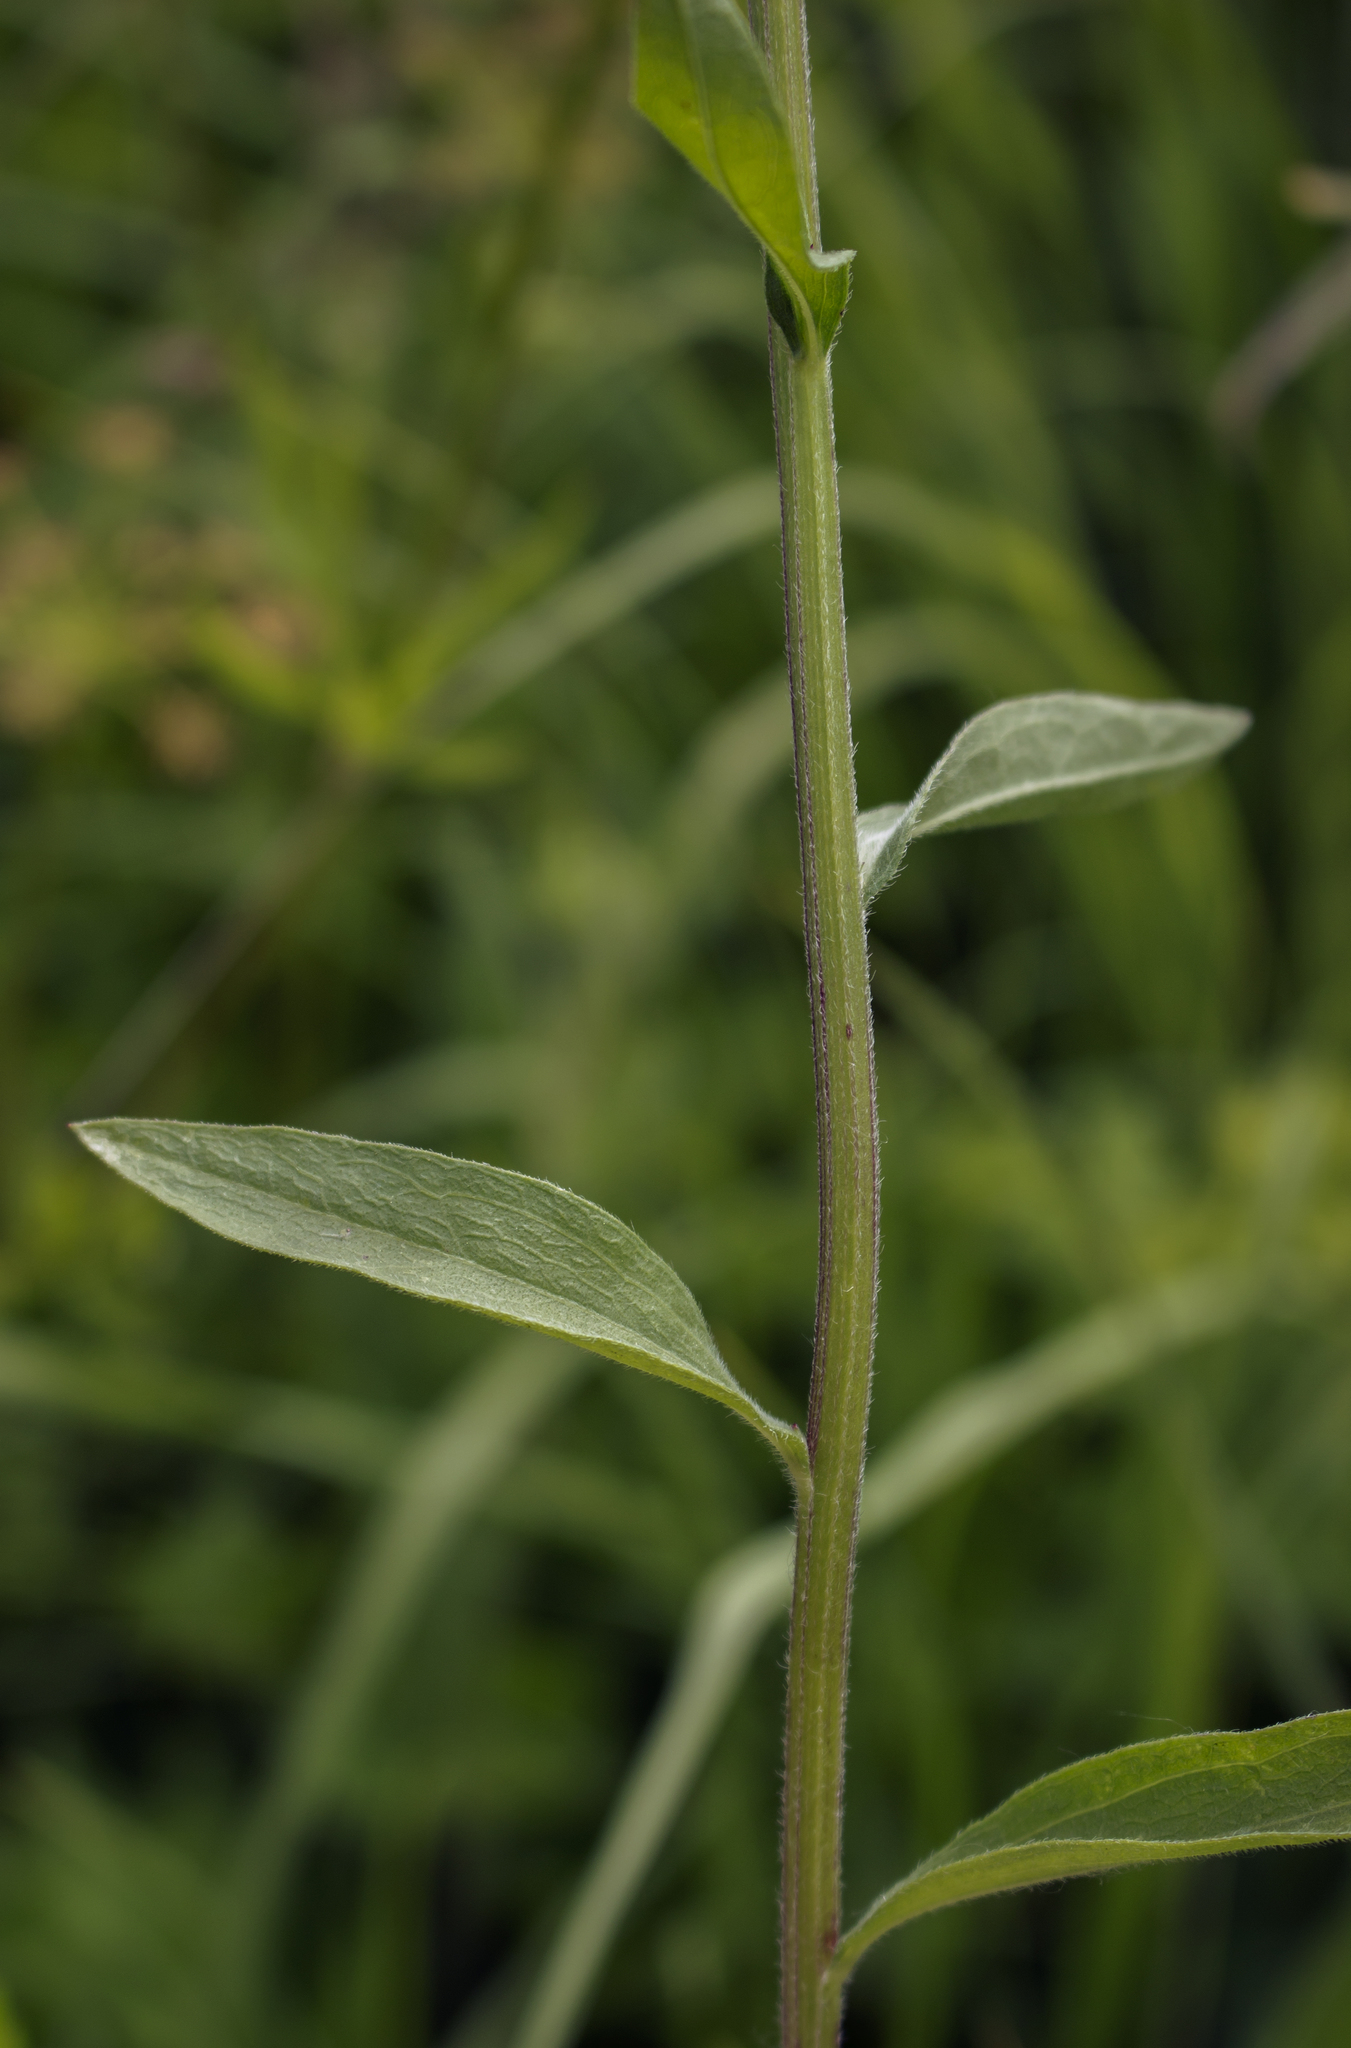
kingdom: Plantae
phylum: Tracheophyta
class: Magnoliopsida
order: Asterales
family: Asteraceae
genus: Erigeron
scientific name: Erigeron strigosus
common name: Common eastern fleabane
